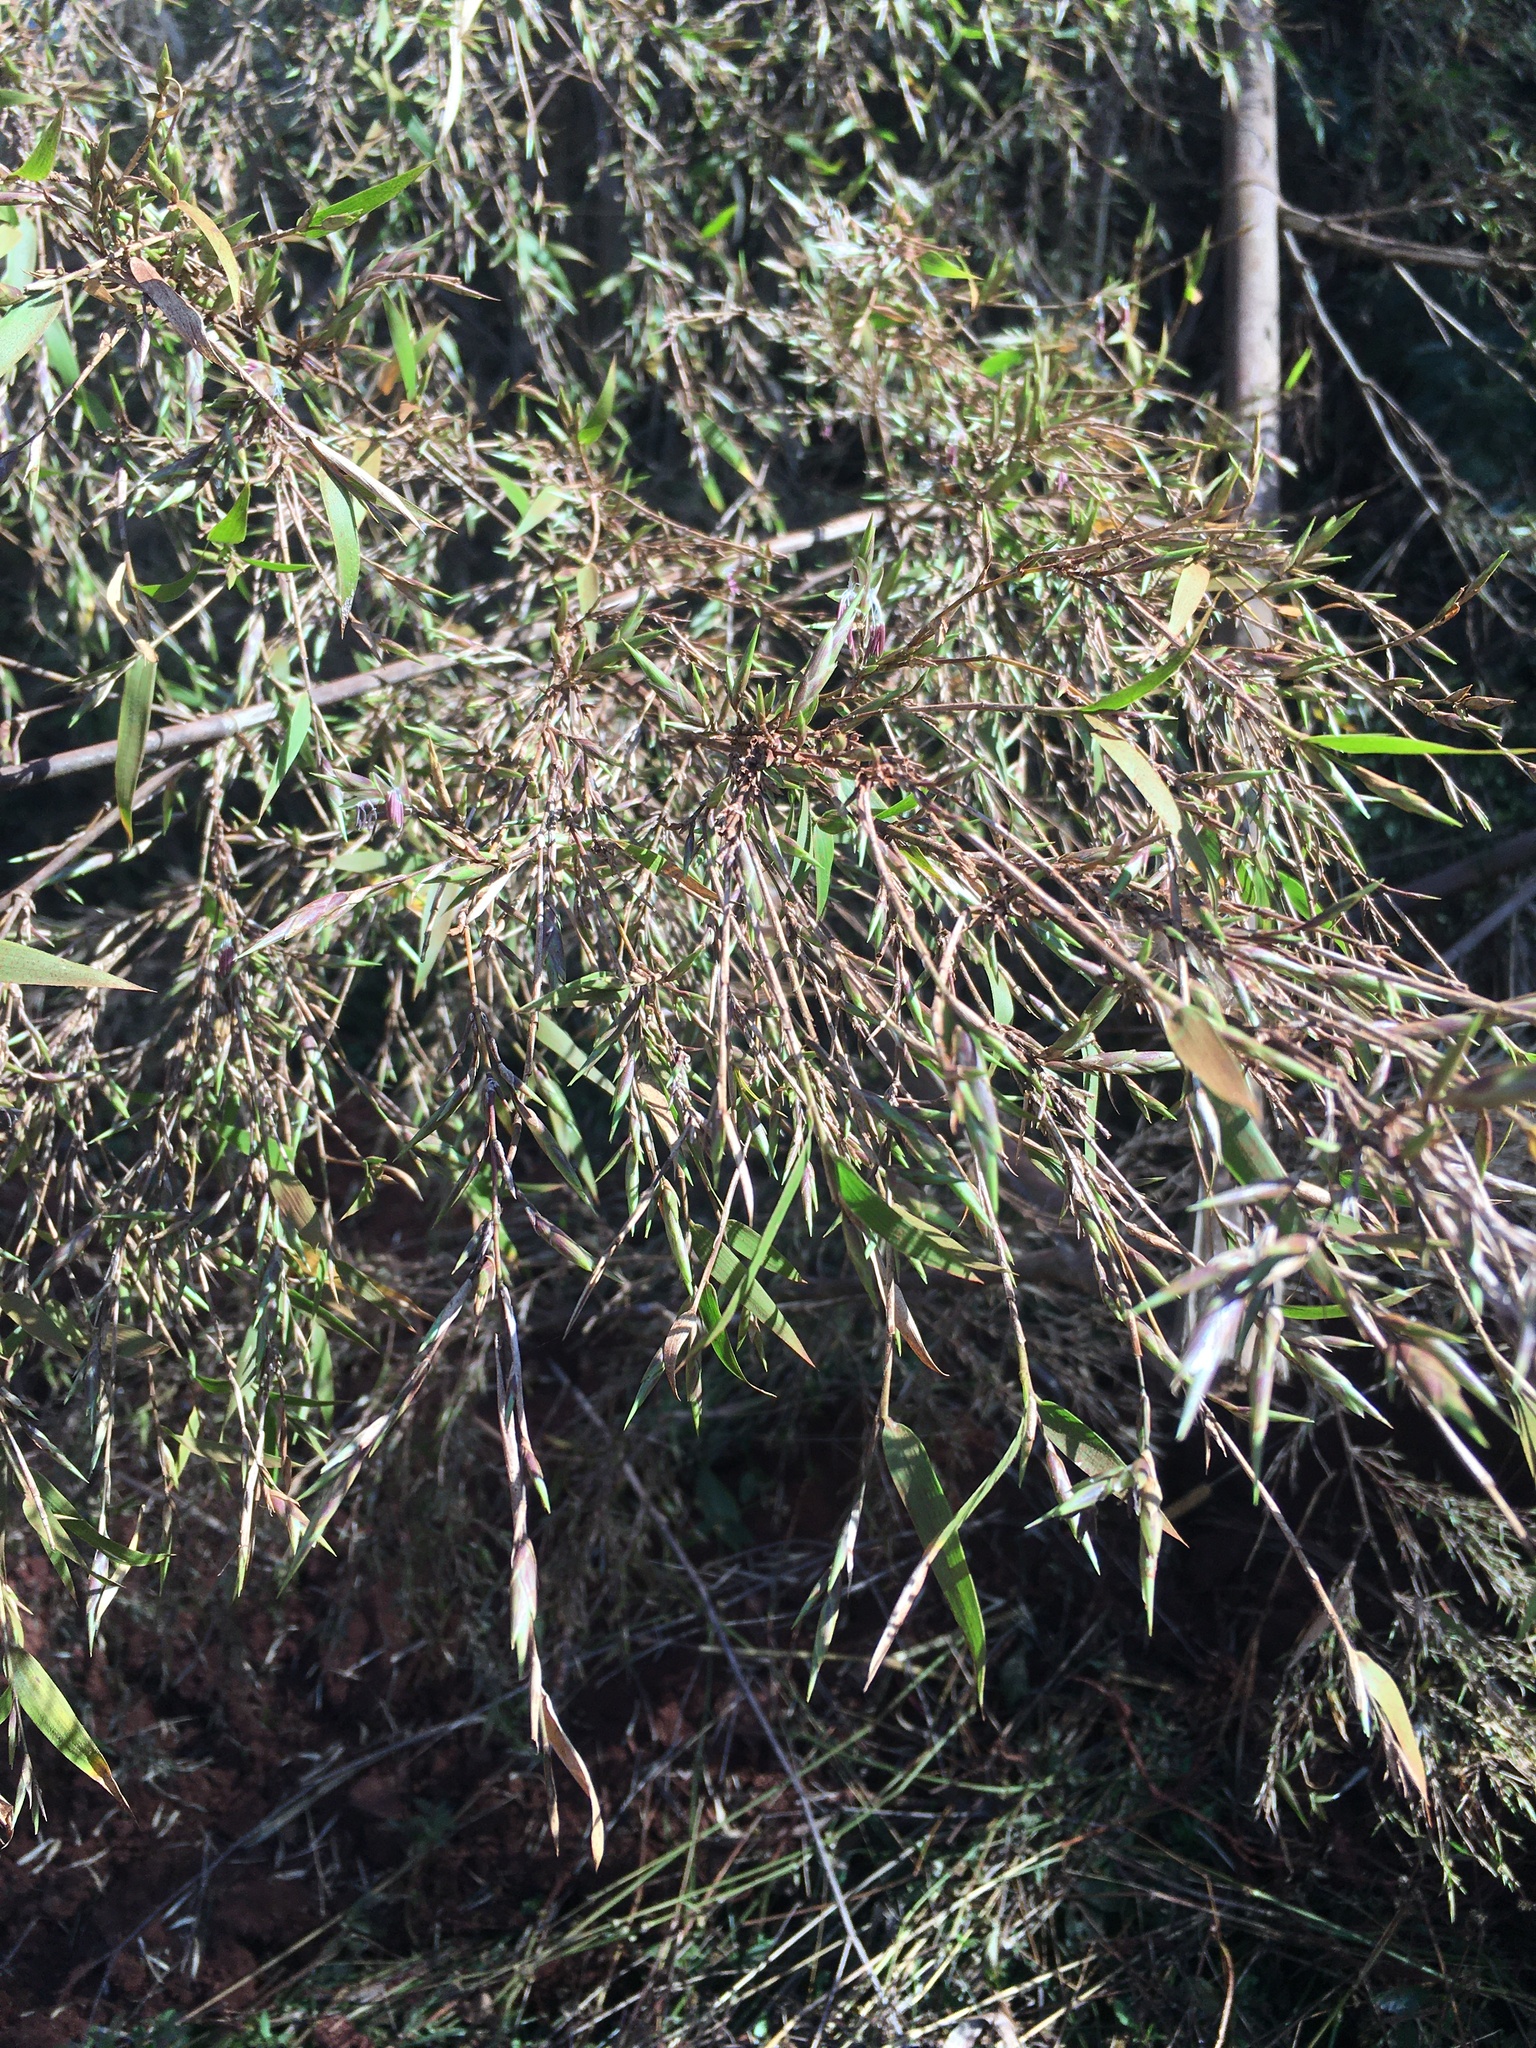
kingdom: Plantae
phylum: Tracheophyta
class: Liliopsida
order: Poales
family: Poaceae
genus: Guadua
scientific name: Guadua trinii
